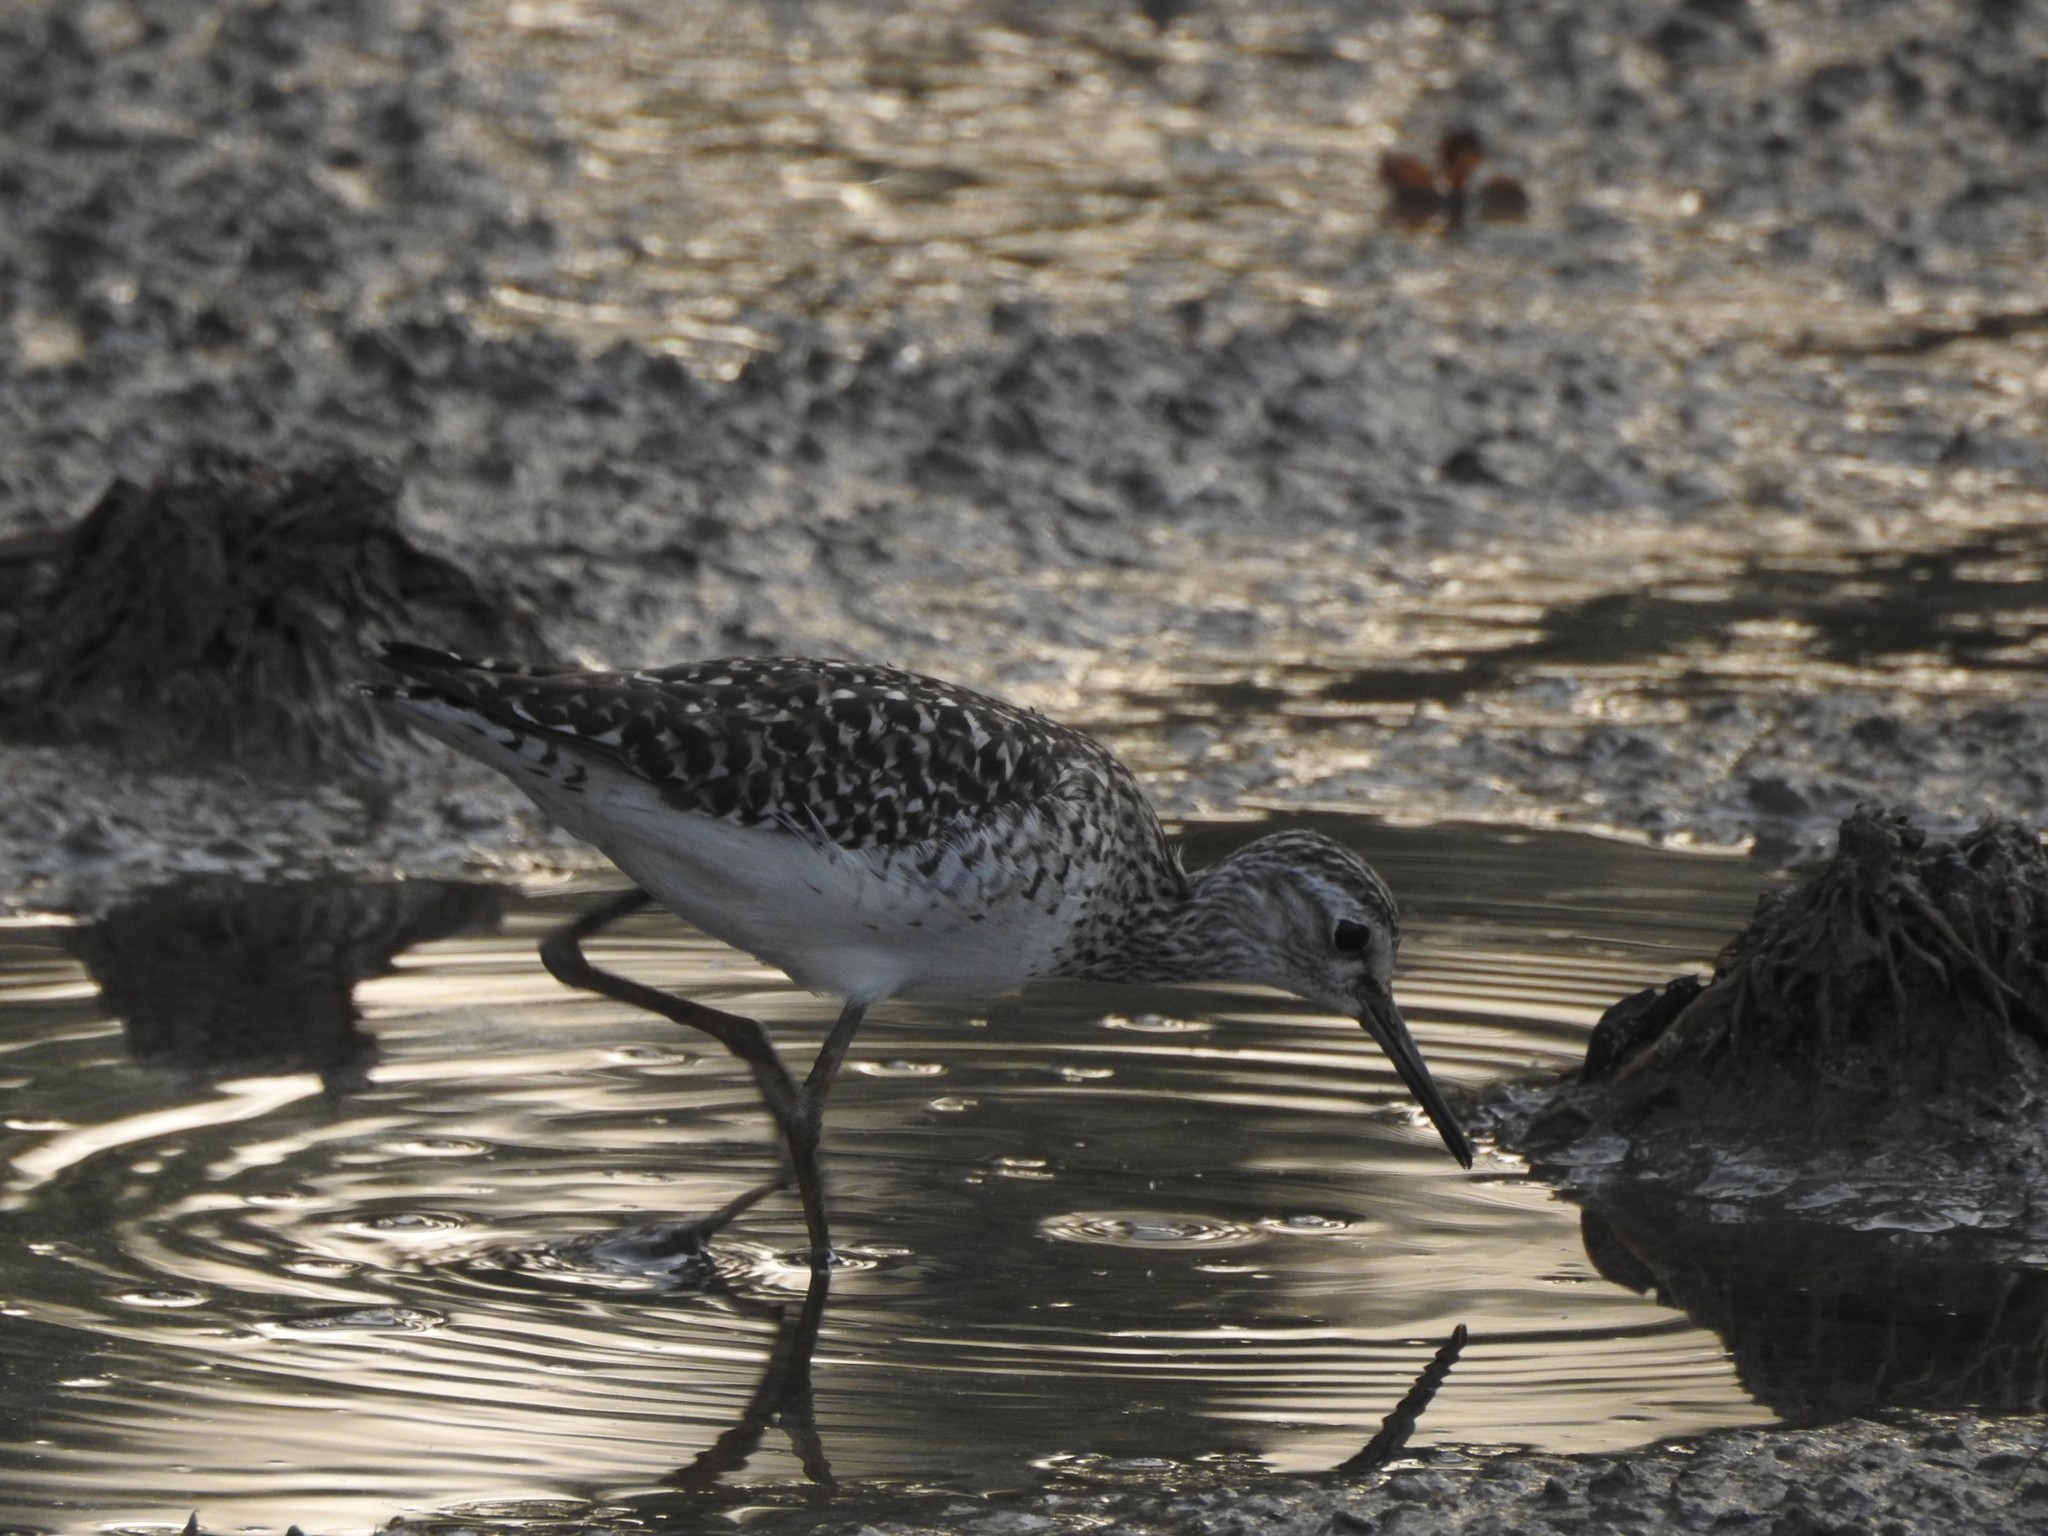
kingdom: Animalia
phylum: Chordata
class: Aves
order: Charadriiformes
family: Scolopacidae
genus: Tringa
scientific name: Tringa glareola
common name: Wood sandpiper
